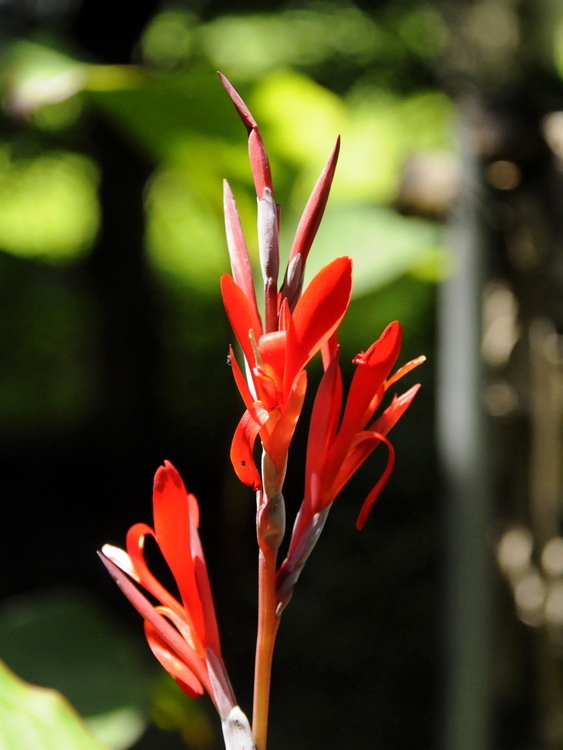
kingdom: Plantae
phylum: Tracheophyta
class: Liliopsida
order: Zingiberales
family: Cannaceae
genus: Canna
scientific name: Canna indica
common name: Indian shot
